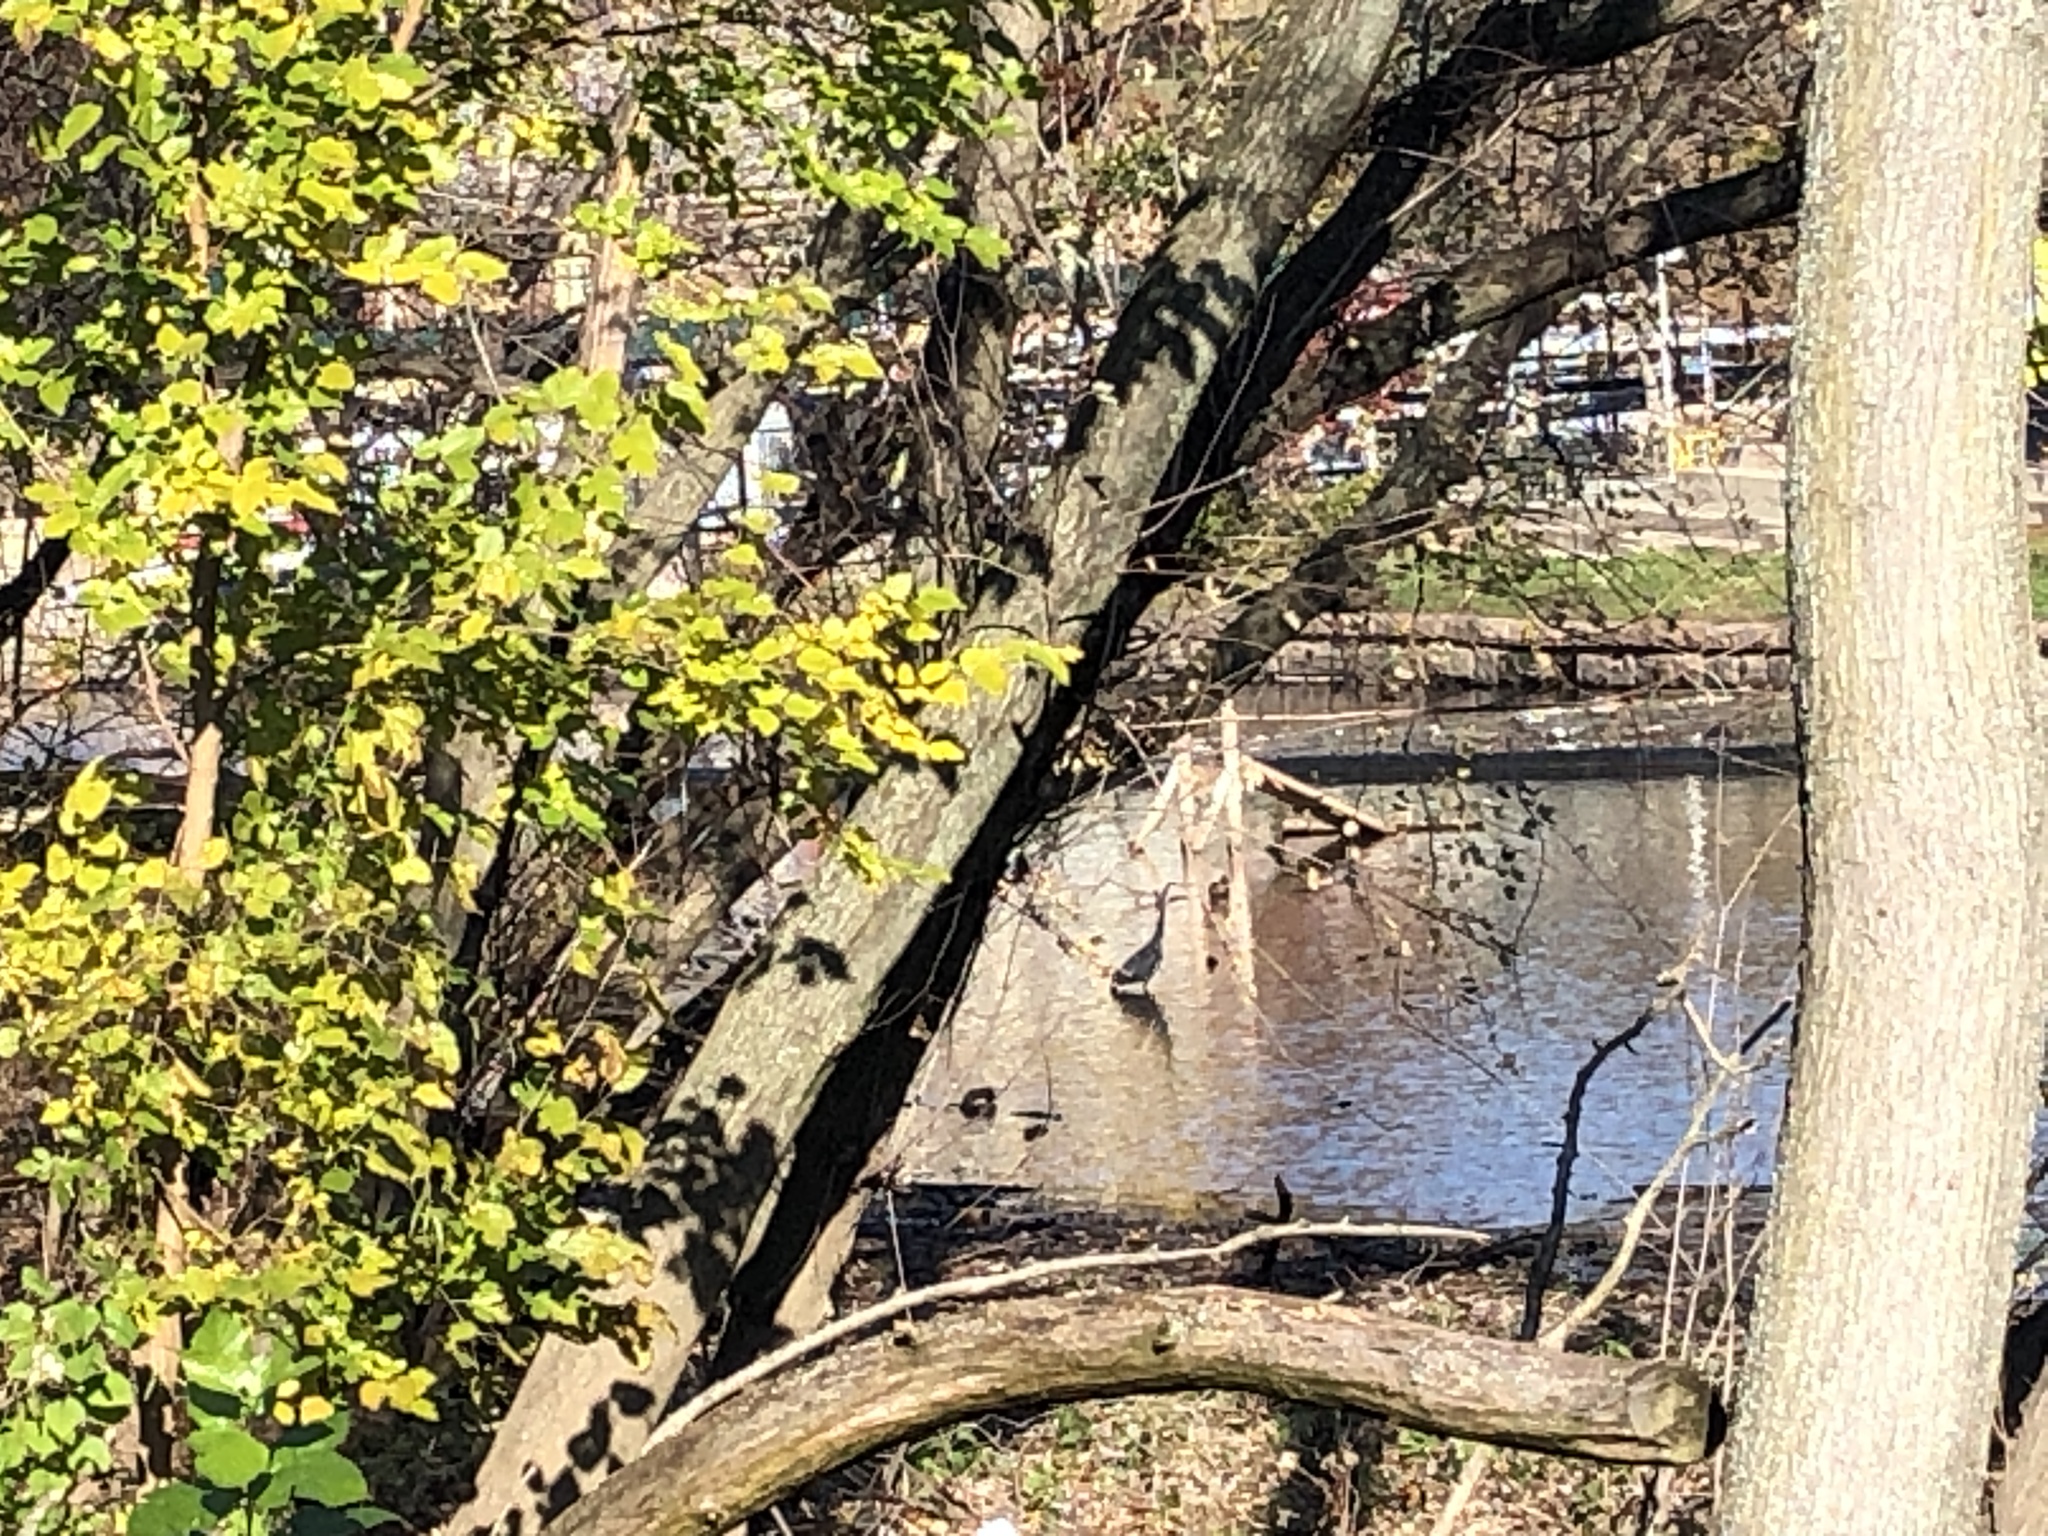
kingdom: Animalia
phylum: Chordata
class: Aves
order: Pelecaniformes
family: Ardeidae
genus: Ardea
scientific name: Ardea herodias
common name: Great blue heron
